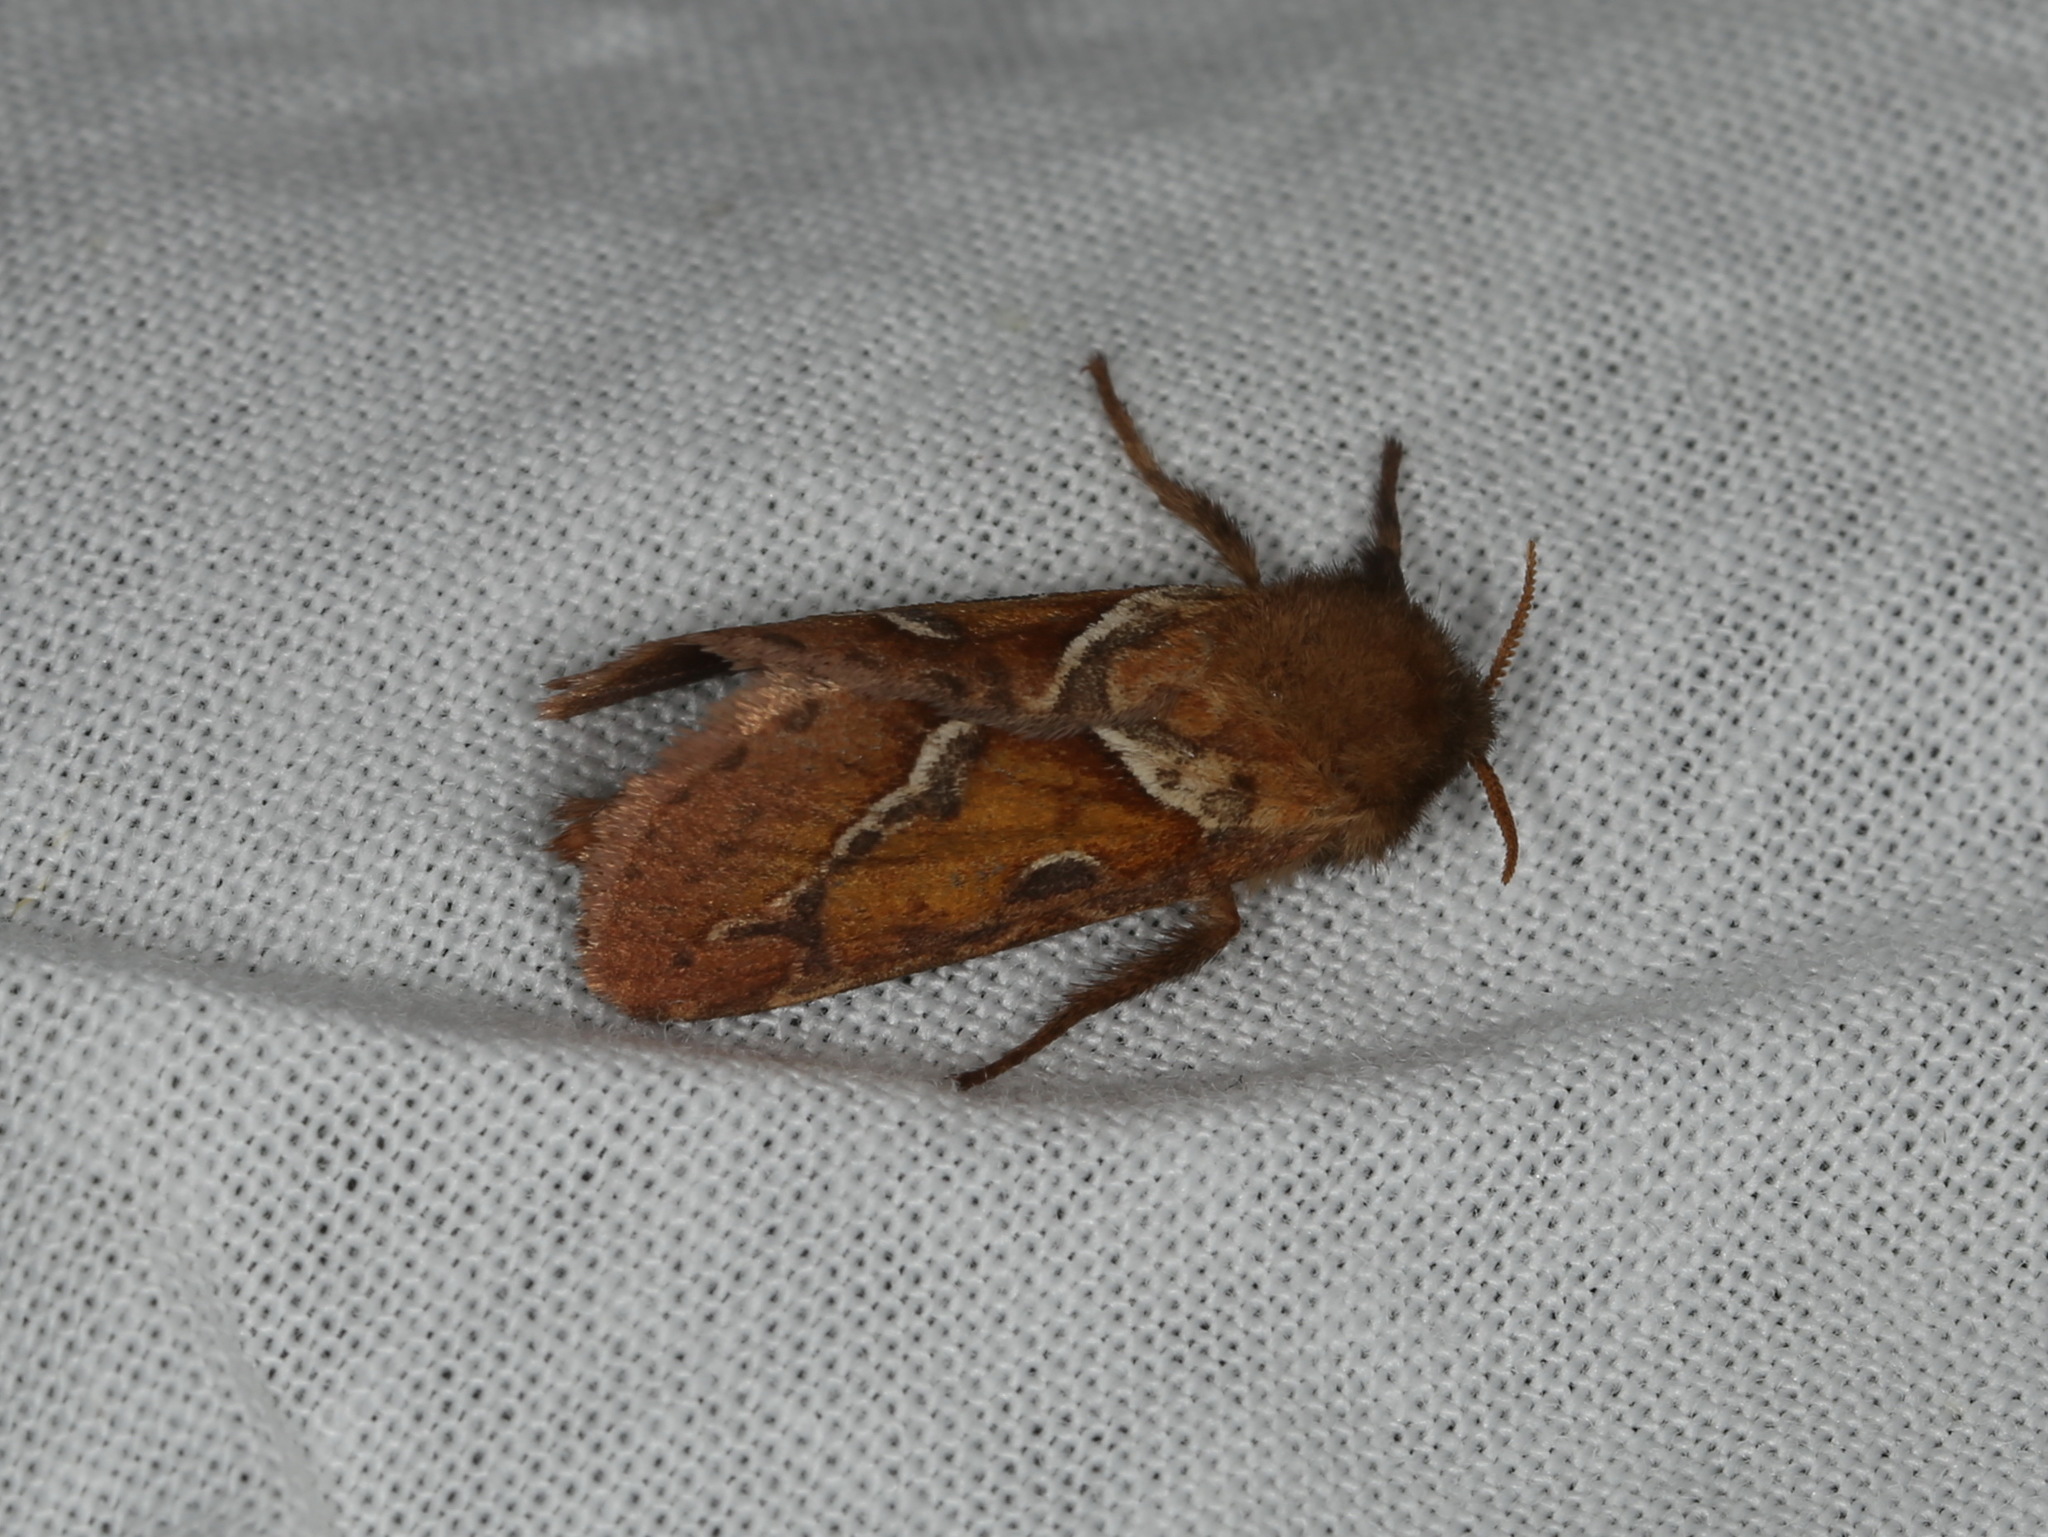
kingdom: Animalia
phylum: Arthropoda
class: Insecta
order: Lepidoptera
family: Hepialidae
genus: Triodia
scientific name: Triodia sylvina
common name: Orange swift
